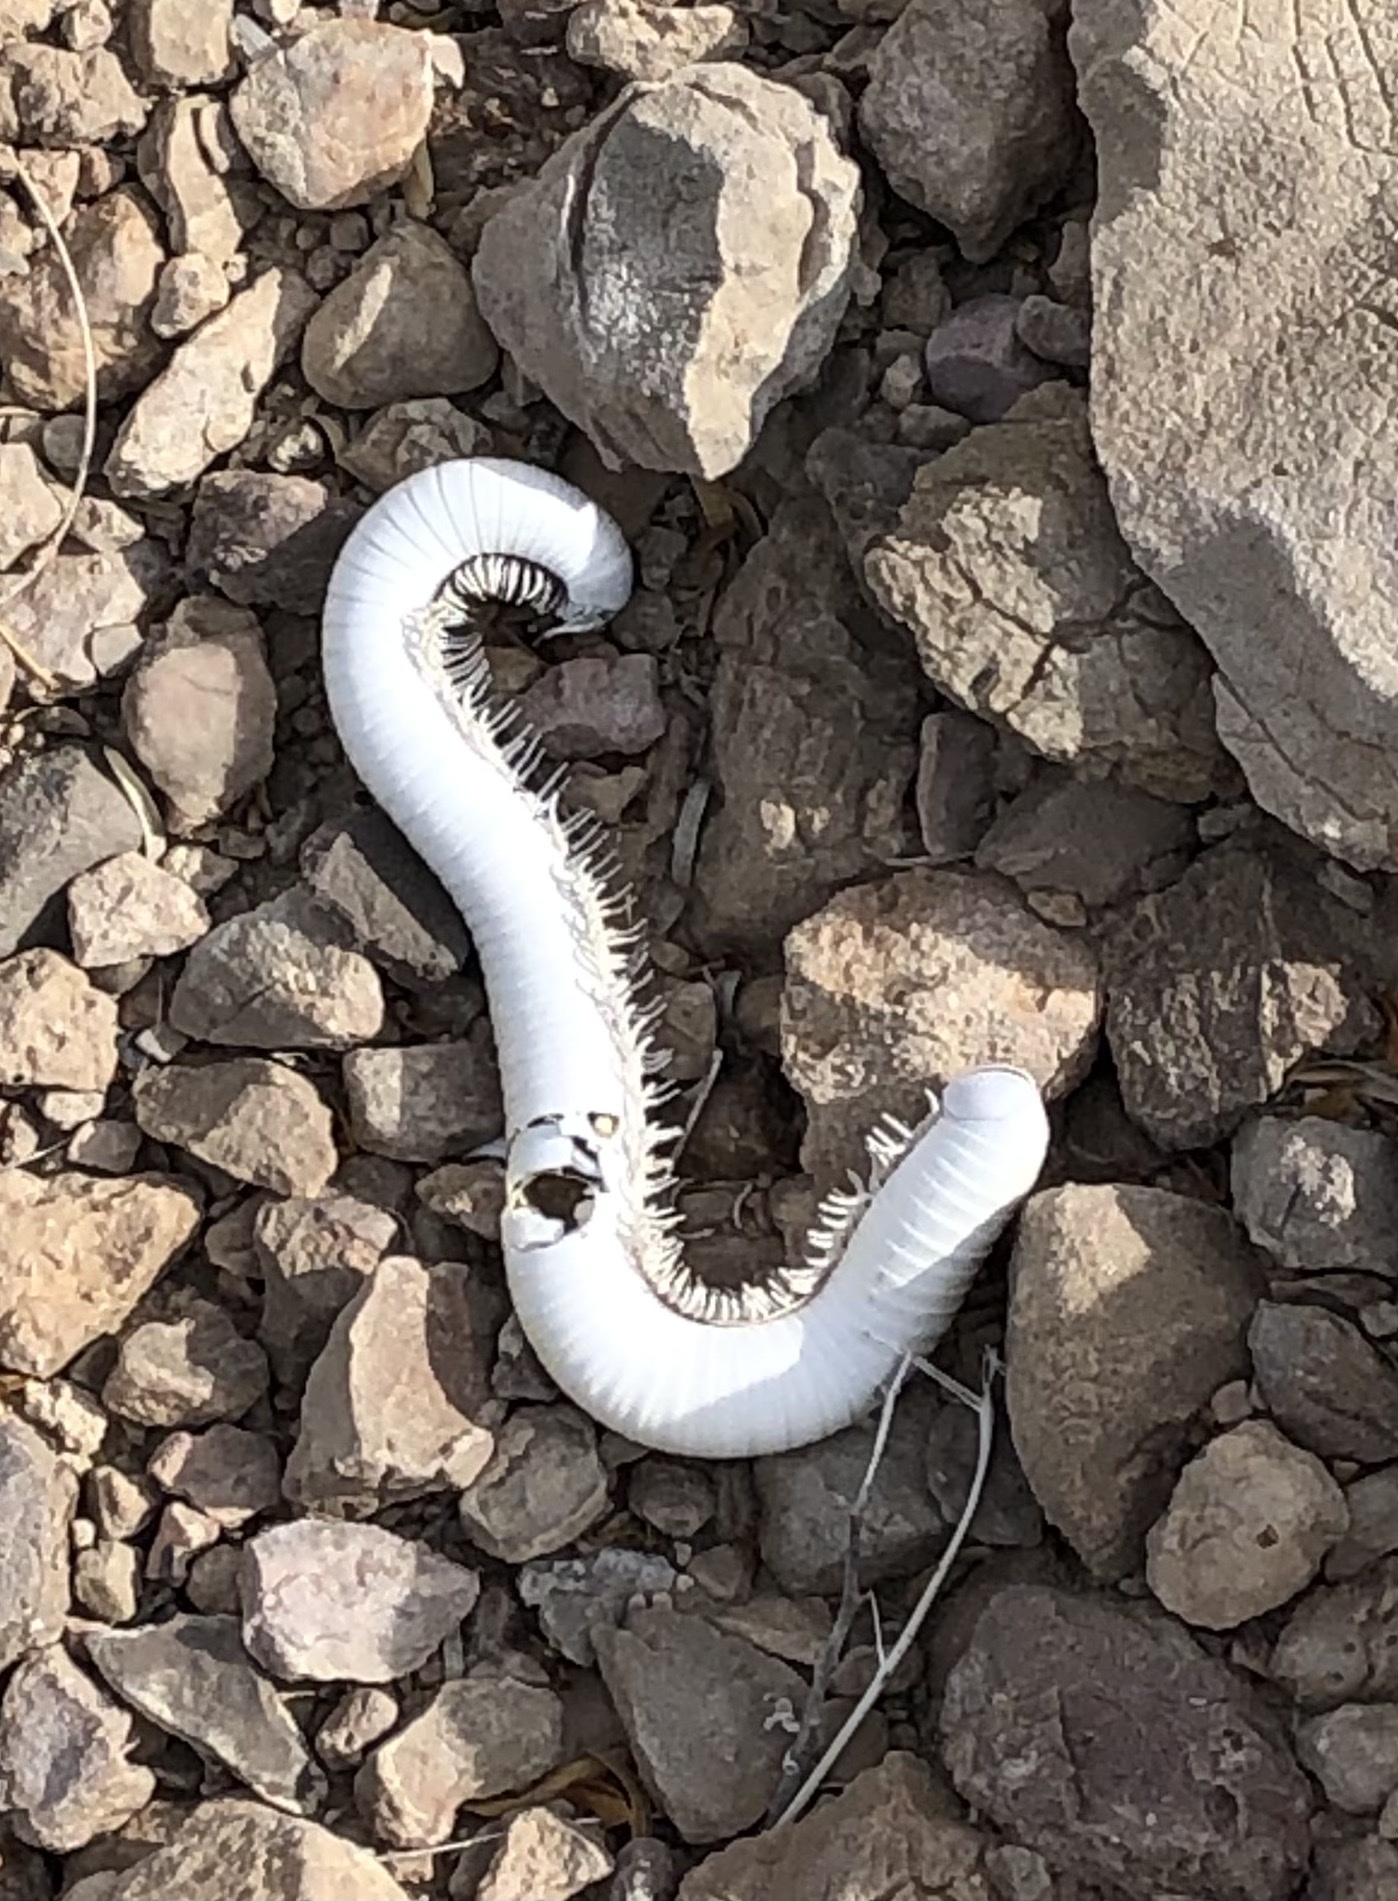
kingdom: Animalia
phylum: Arthropoda
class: Diplopoda
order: Spirostreptida
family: Spirostreptidae
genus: Orthoporus
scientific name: Orthoporus ornatus
